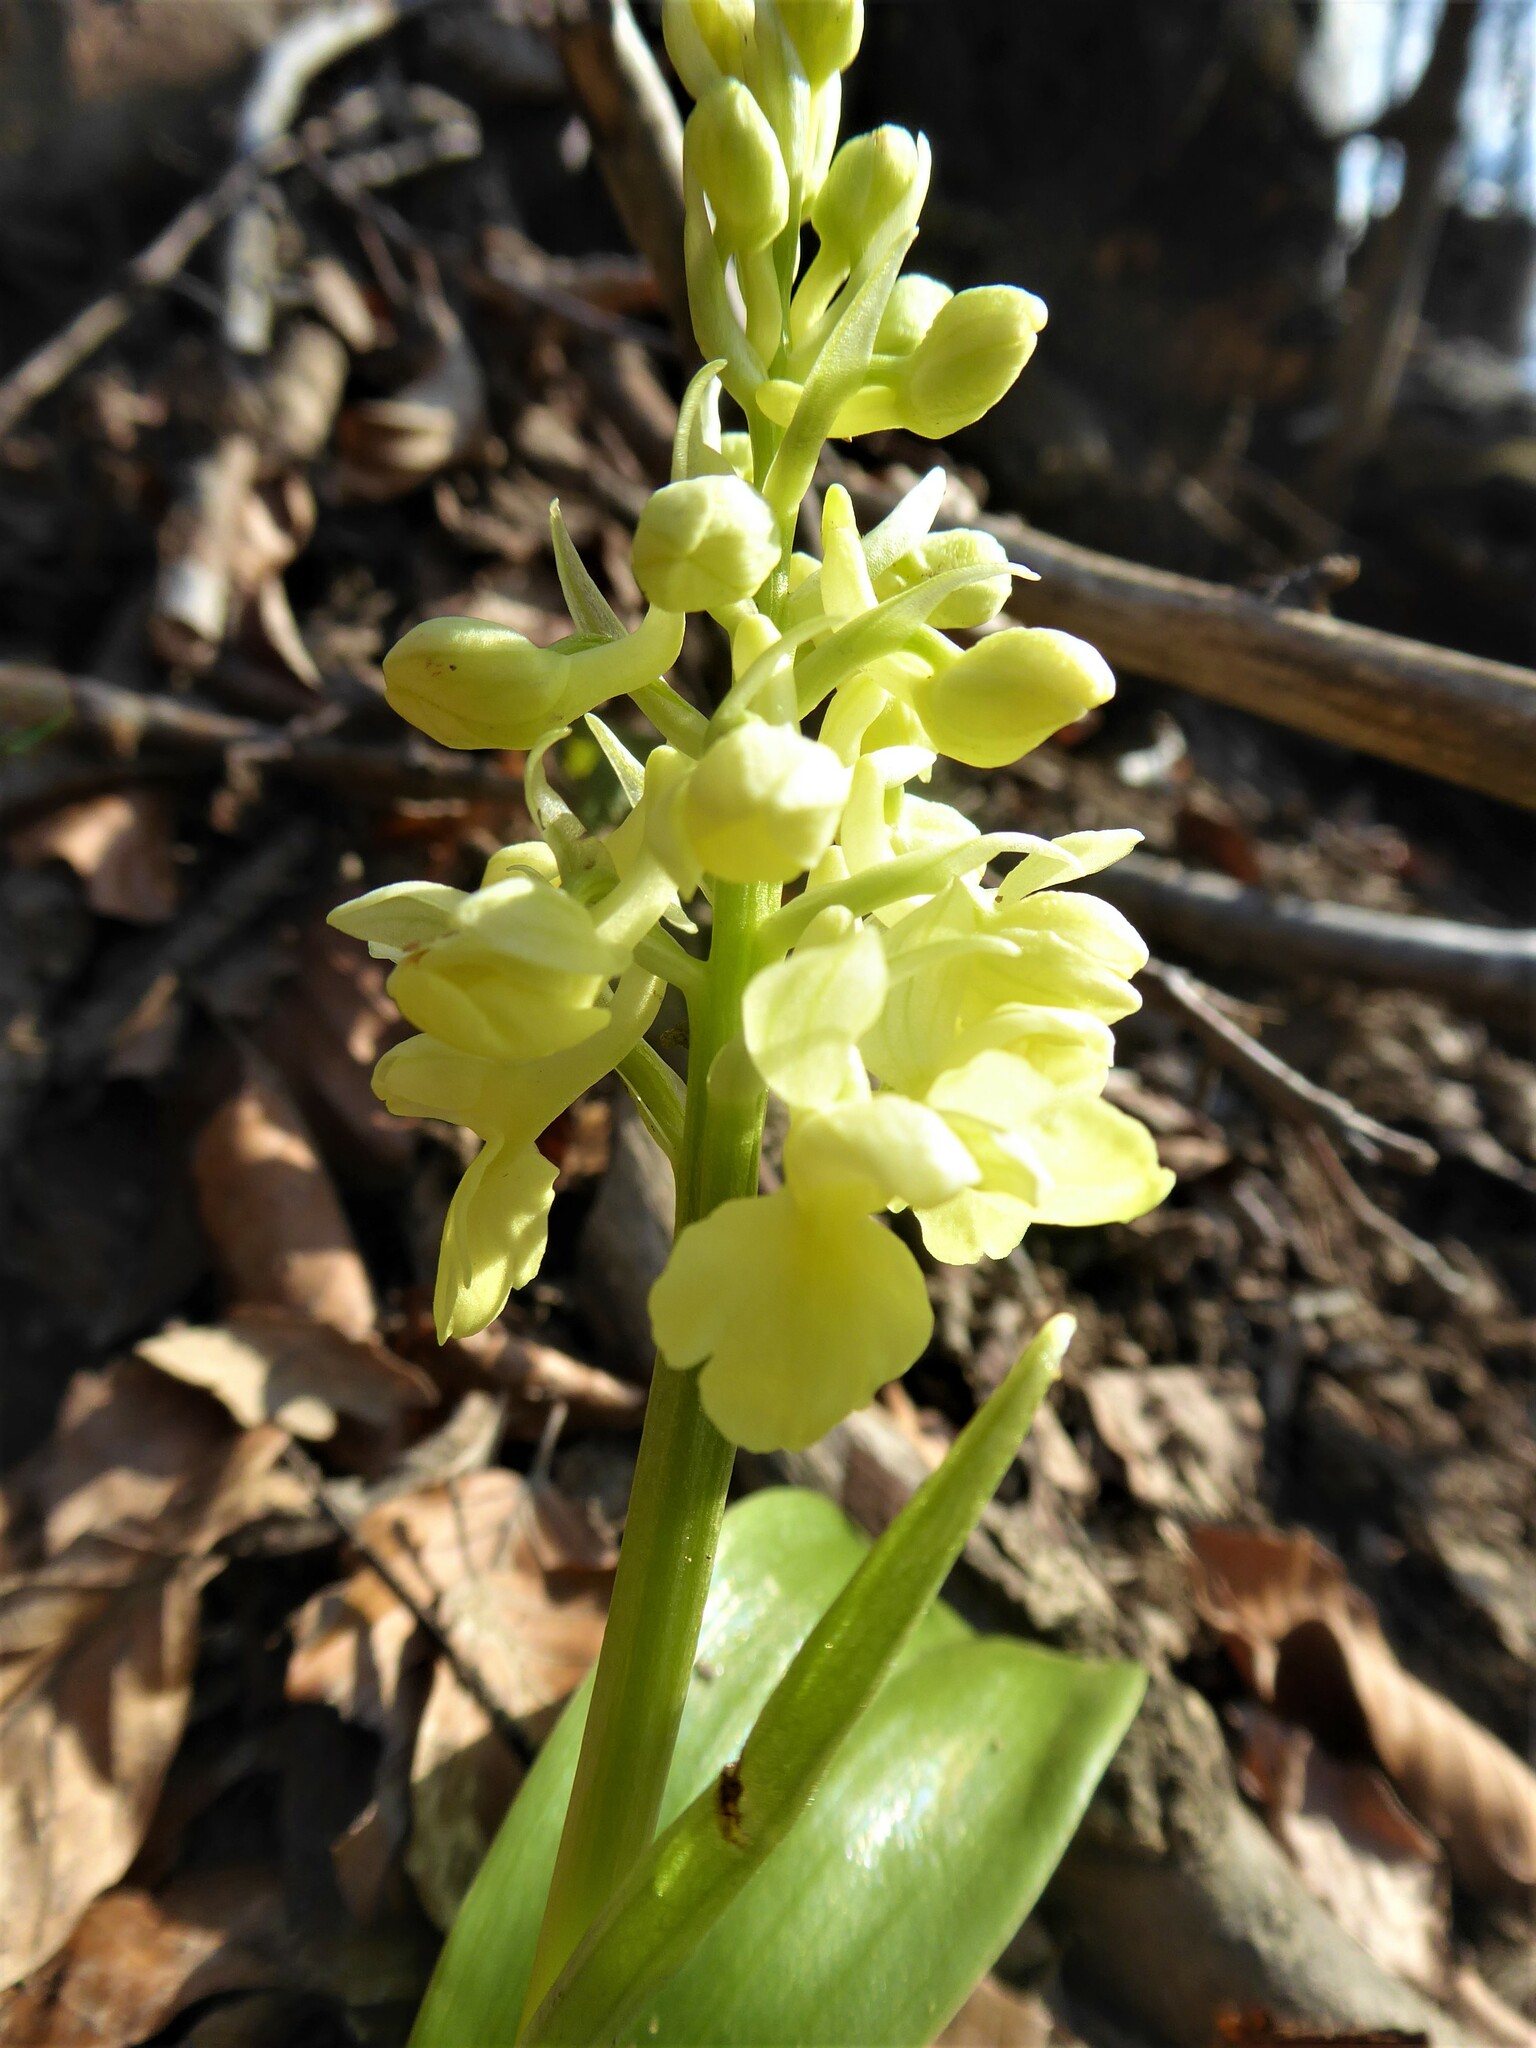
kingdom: Plantae
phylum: Tracheophyta
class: Liliopsida
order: Asparagales
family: Orchidaceae
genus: Orchis
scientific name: Orchis pallens
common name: Pale-flowered orchid
